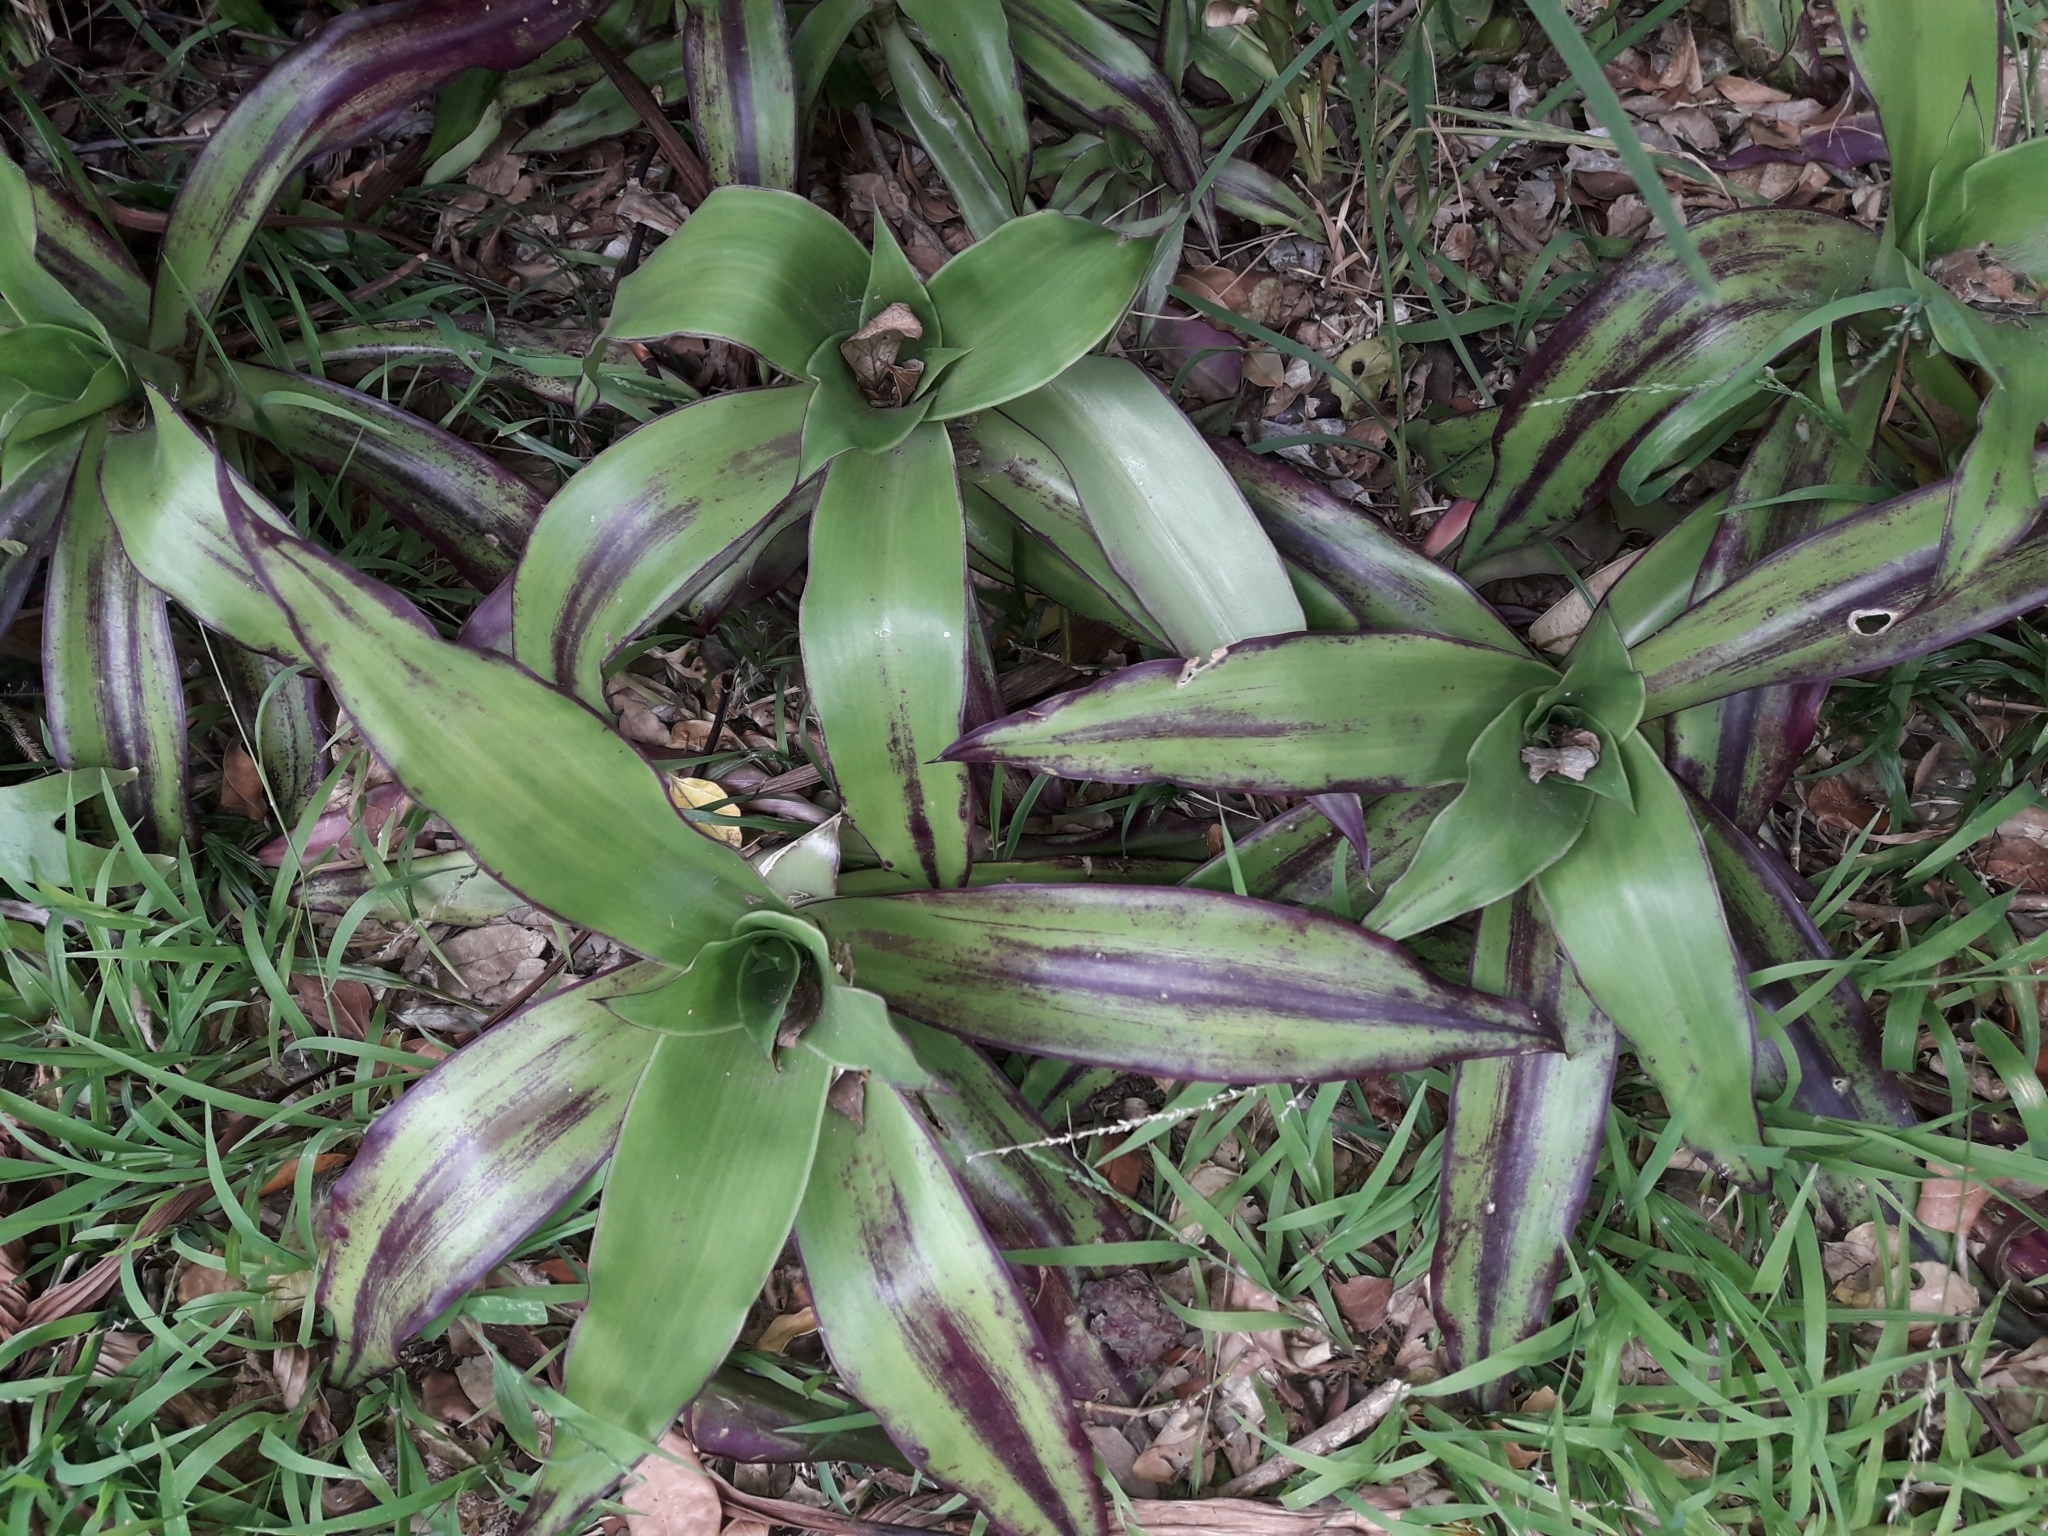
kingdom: Plantae
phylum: Tracheophyta
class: Liliopsida
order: Commelinales
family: Commelinaceae
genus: Callisia
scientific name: Callisia fragrans
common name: Basketplant
